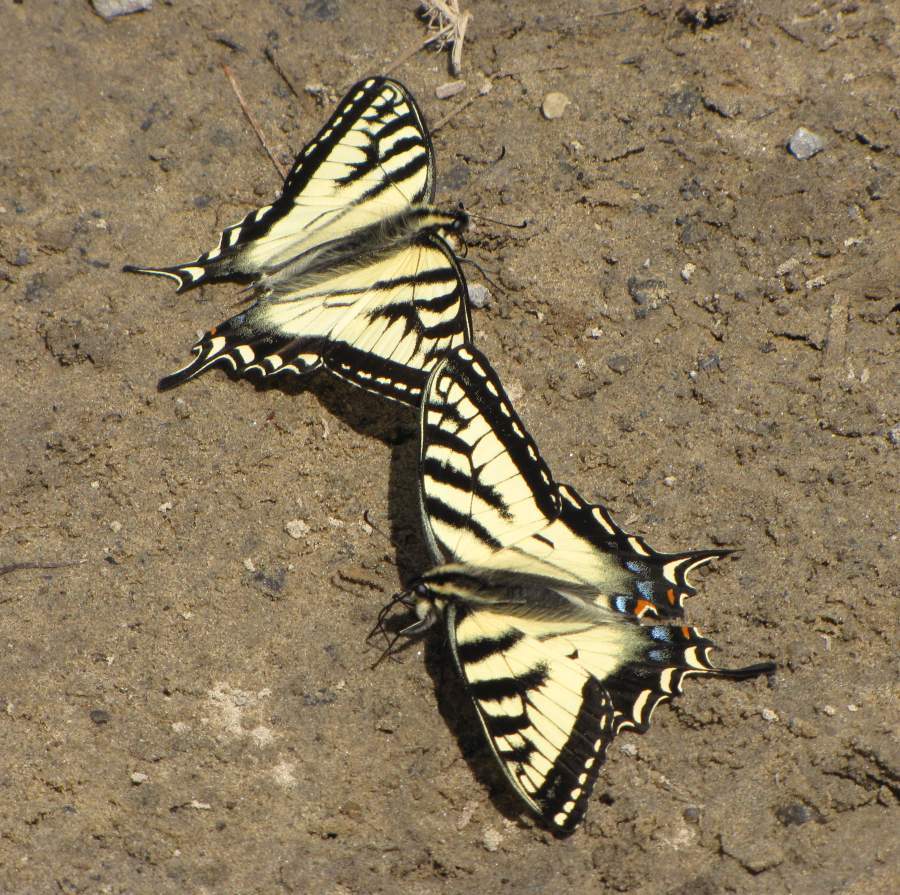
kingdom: Animalia
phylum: Arthropoda
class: Insecta
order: Lepidoptera
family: Papilionidae
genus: Papilio
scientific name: Papilio canadensis
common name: Canadian tiger swallowtail
